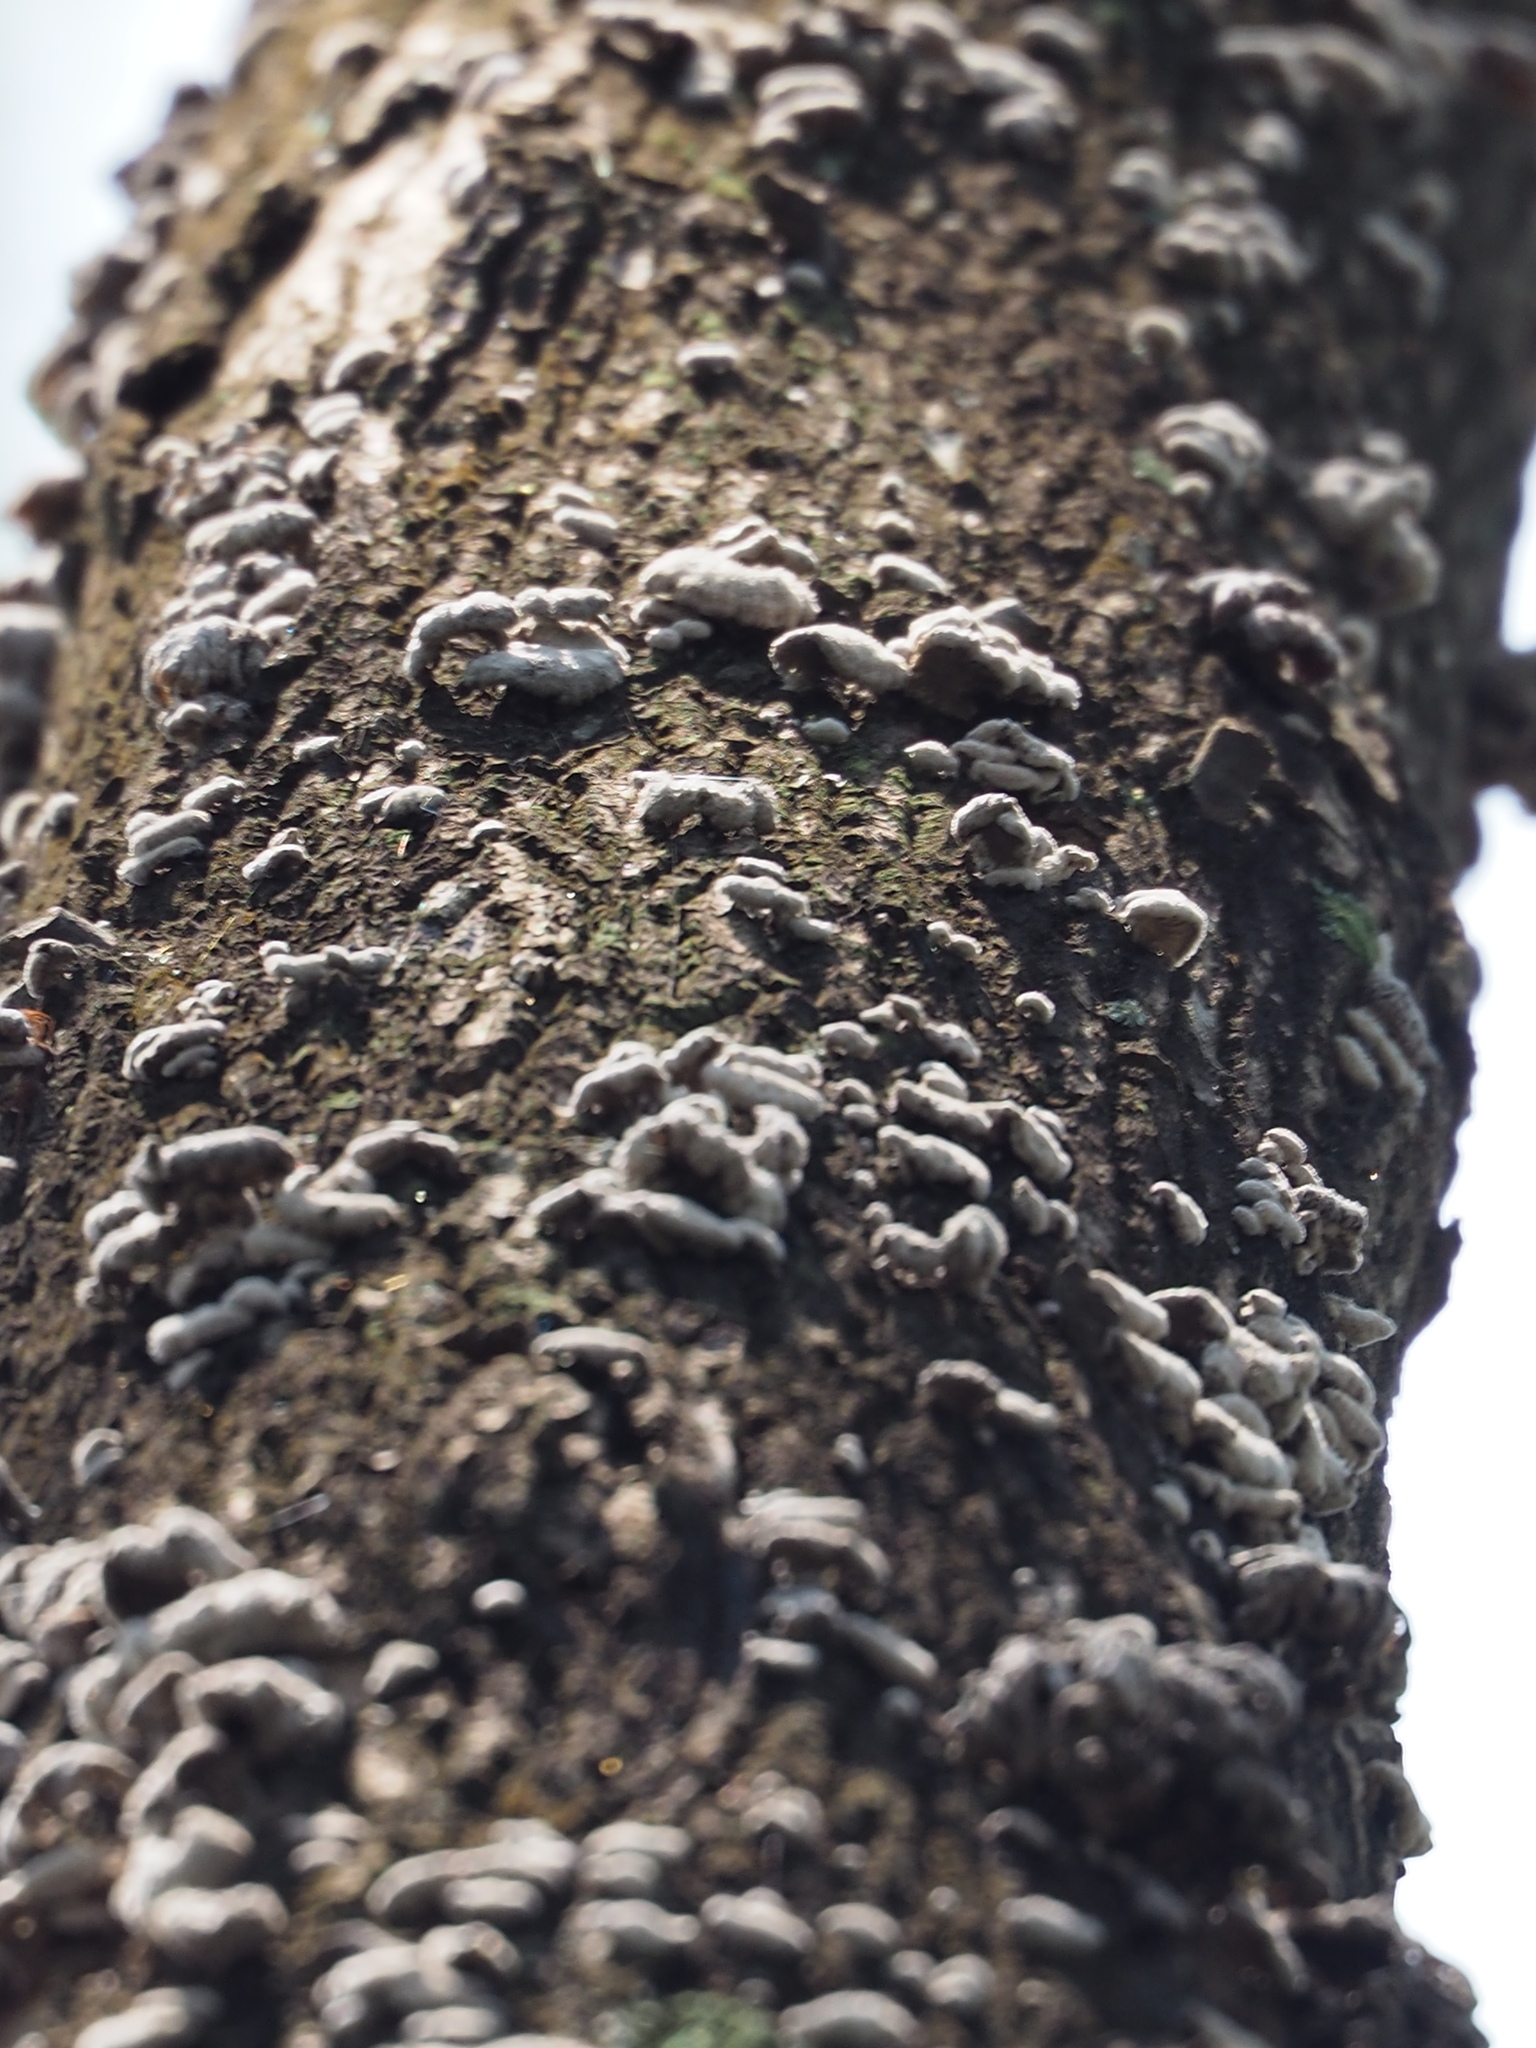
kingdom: Fungi
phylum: Basidiomycota
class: Agaricomycetes
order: Agaricales
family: Schizophyllaceae
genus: Schizophyllum
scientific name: Schizophyllum commune
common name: Common porecrust
